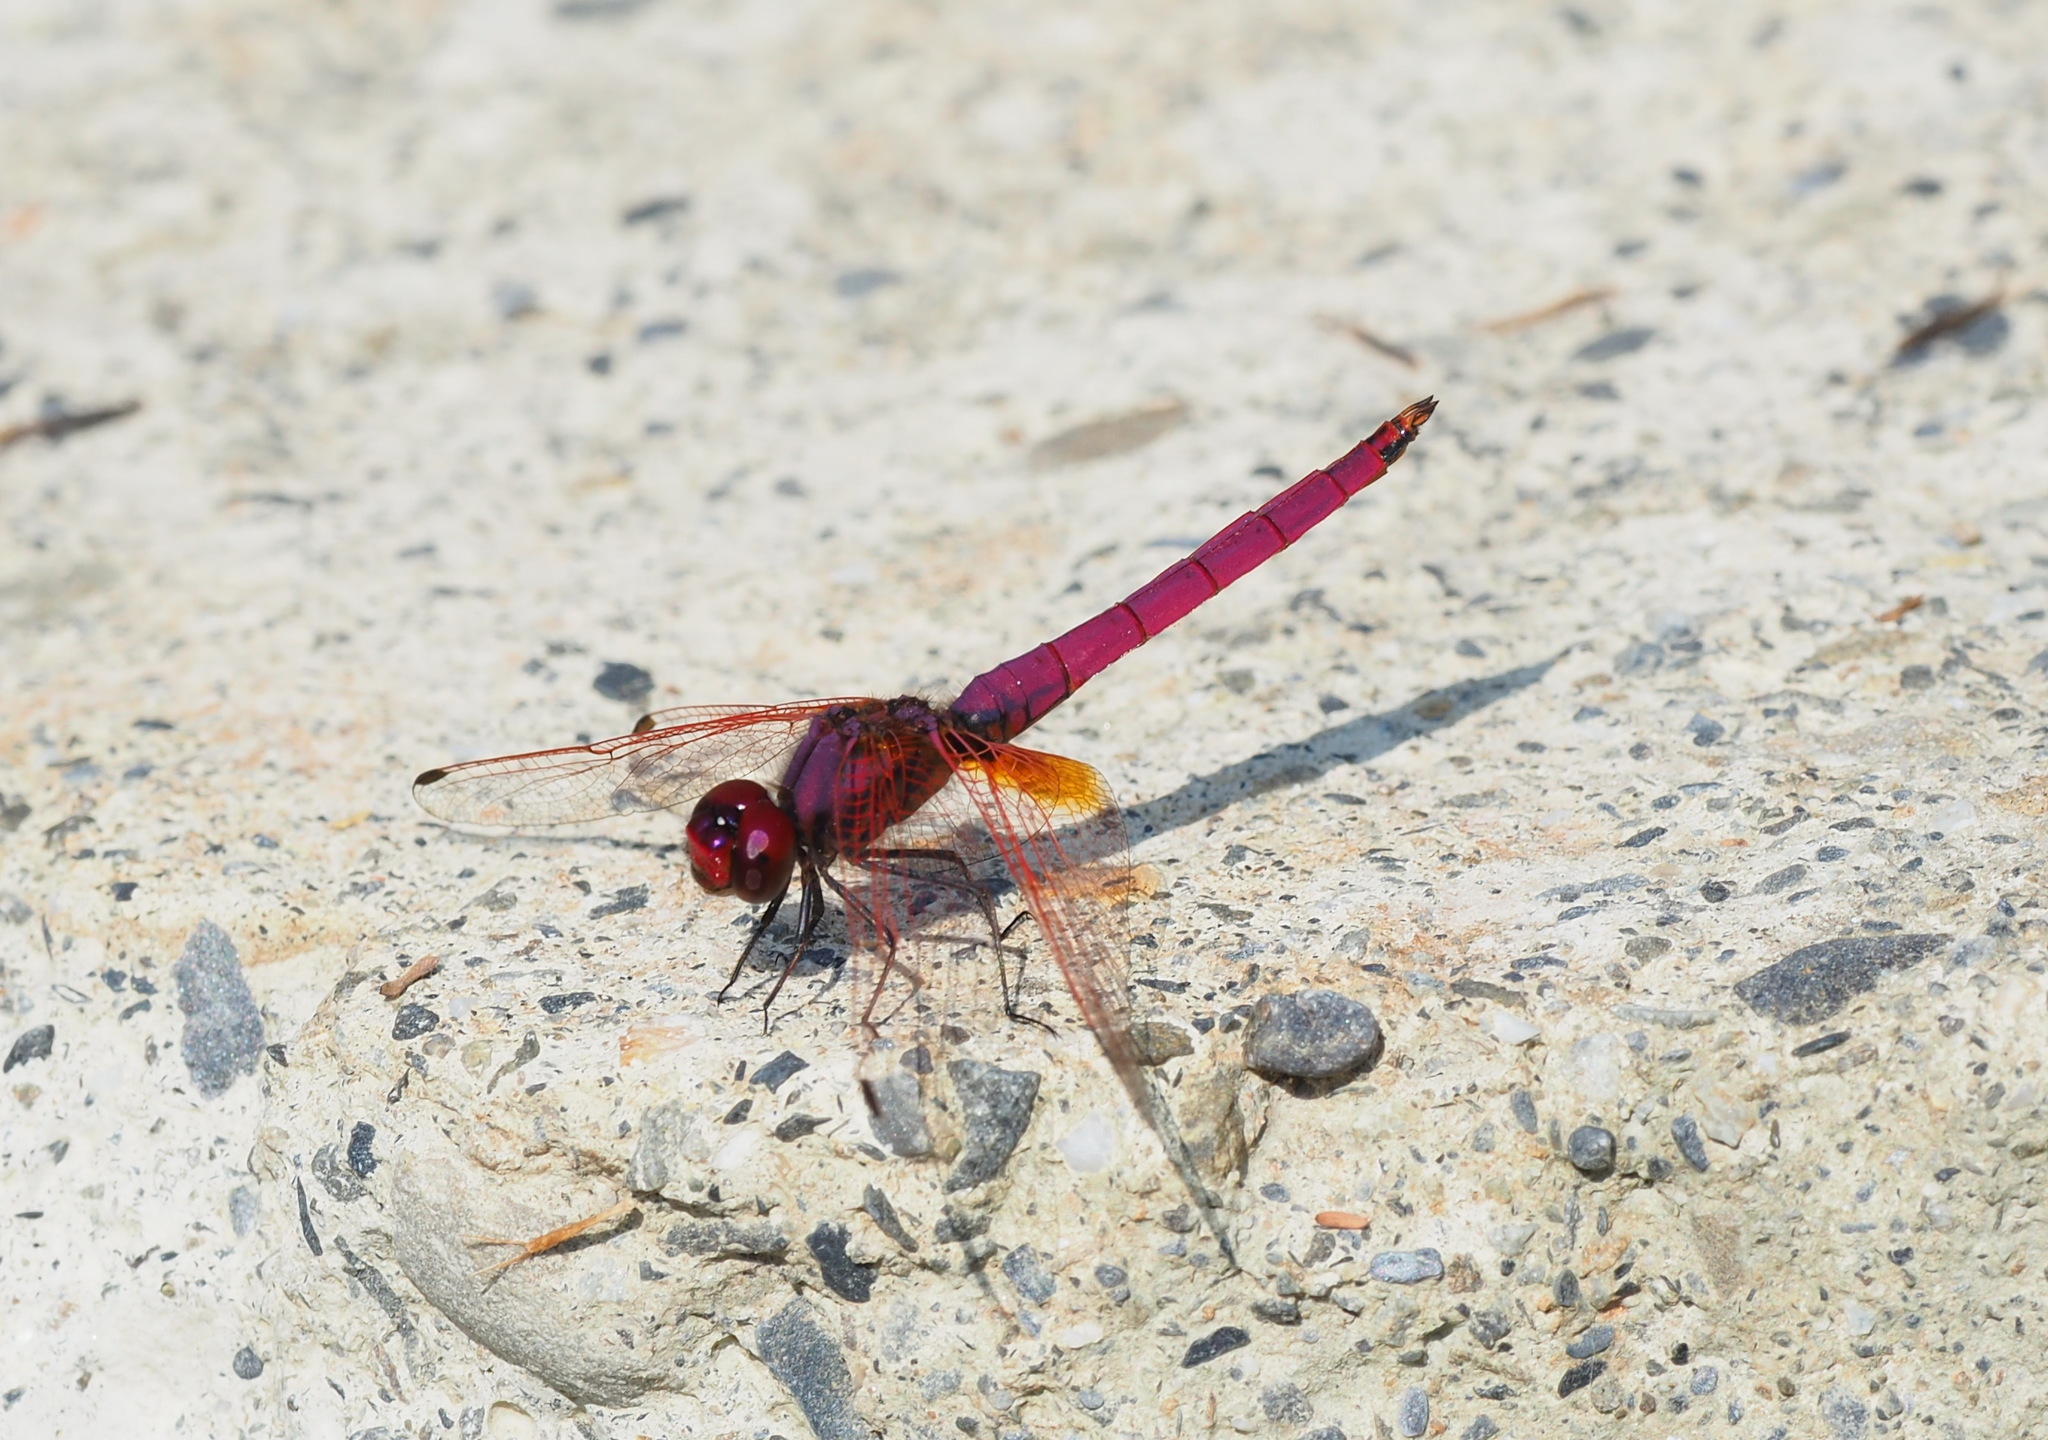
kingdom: Animalia
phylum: Arthropoda
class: Insecta
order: Odonata
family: Libellulidae
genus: Trithemis
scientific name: Trithemis aurora
